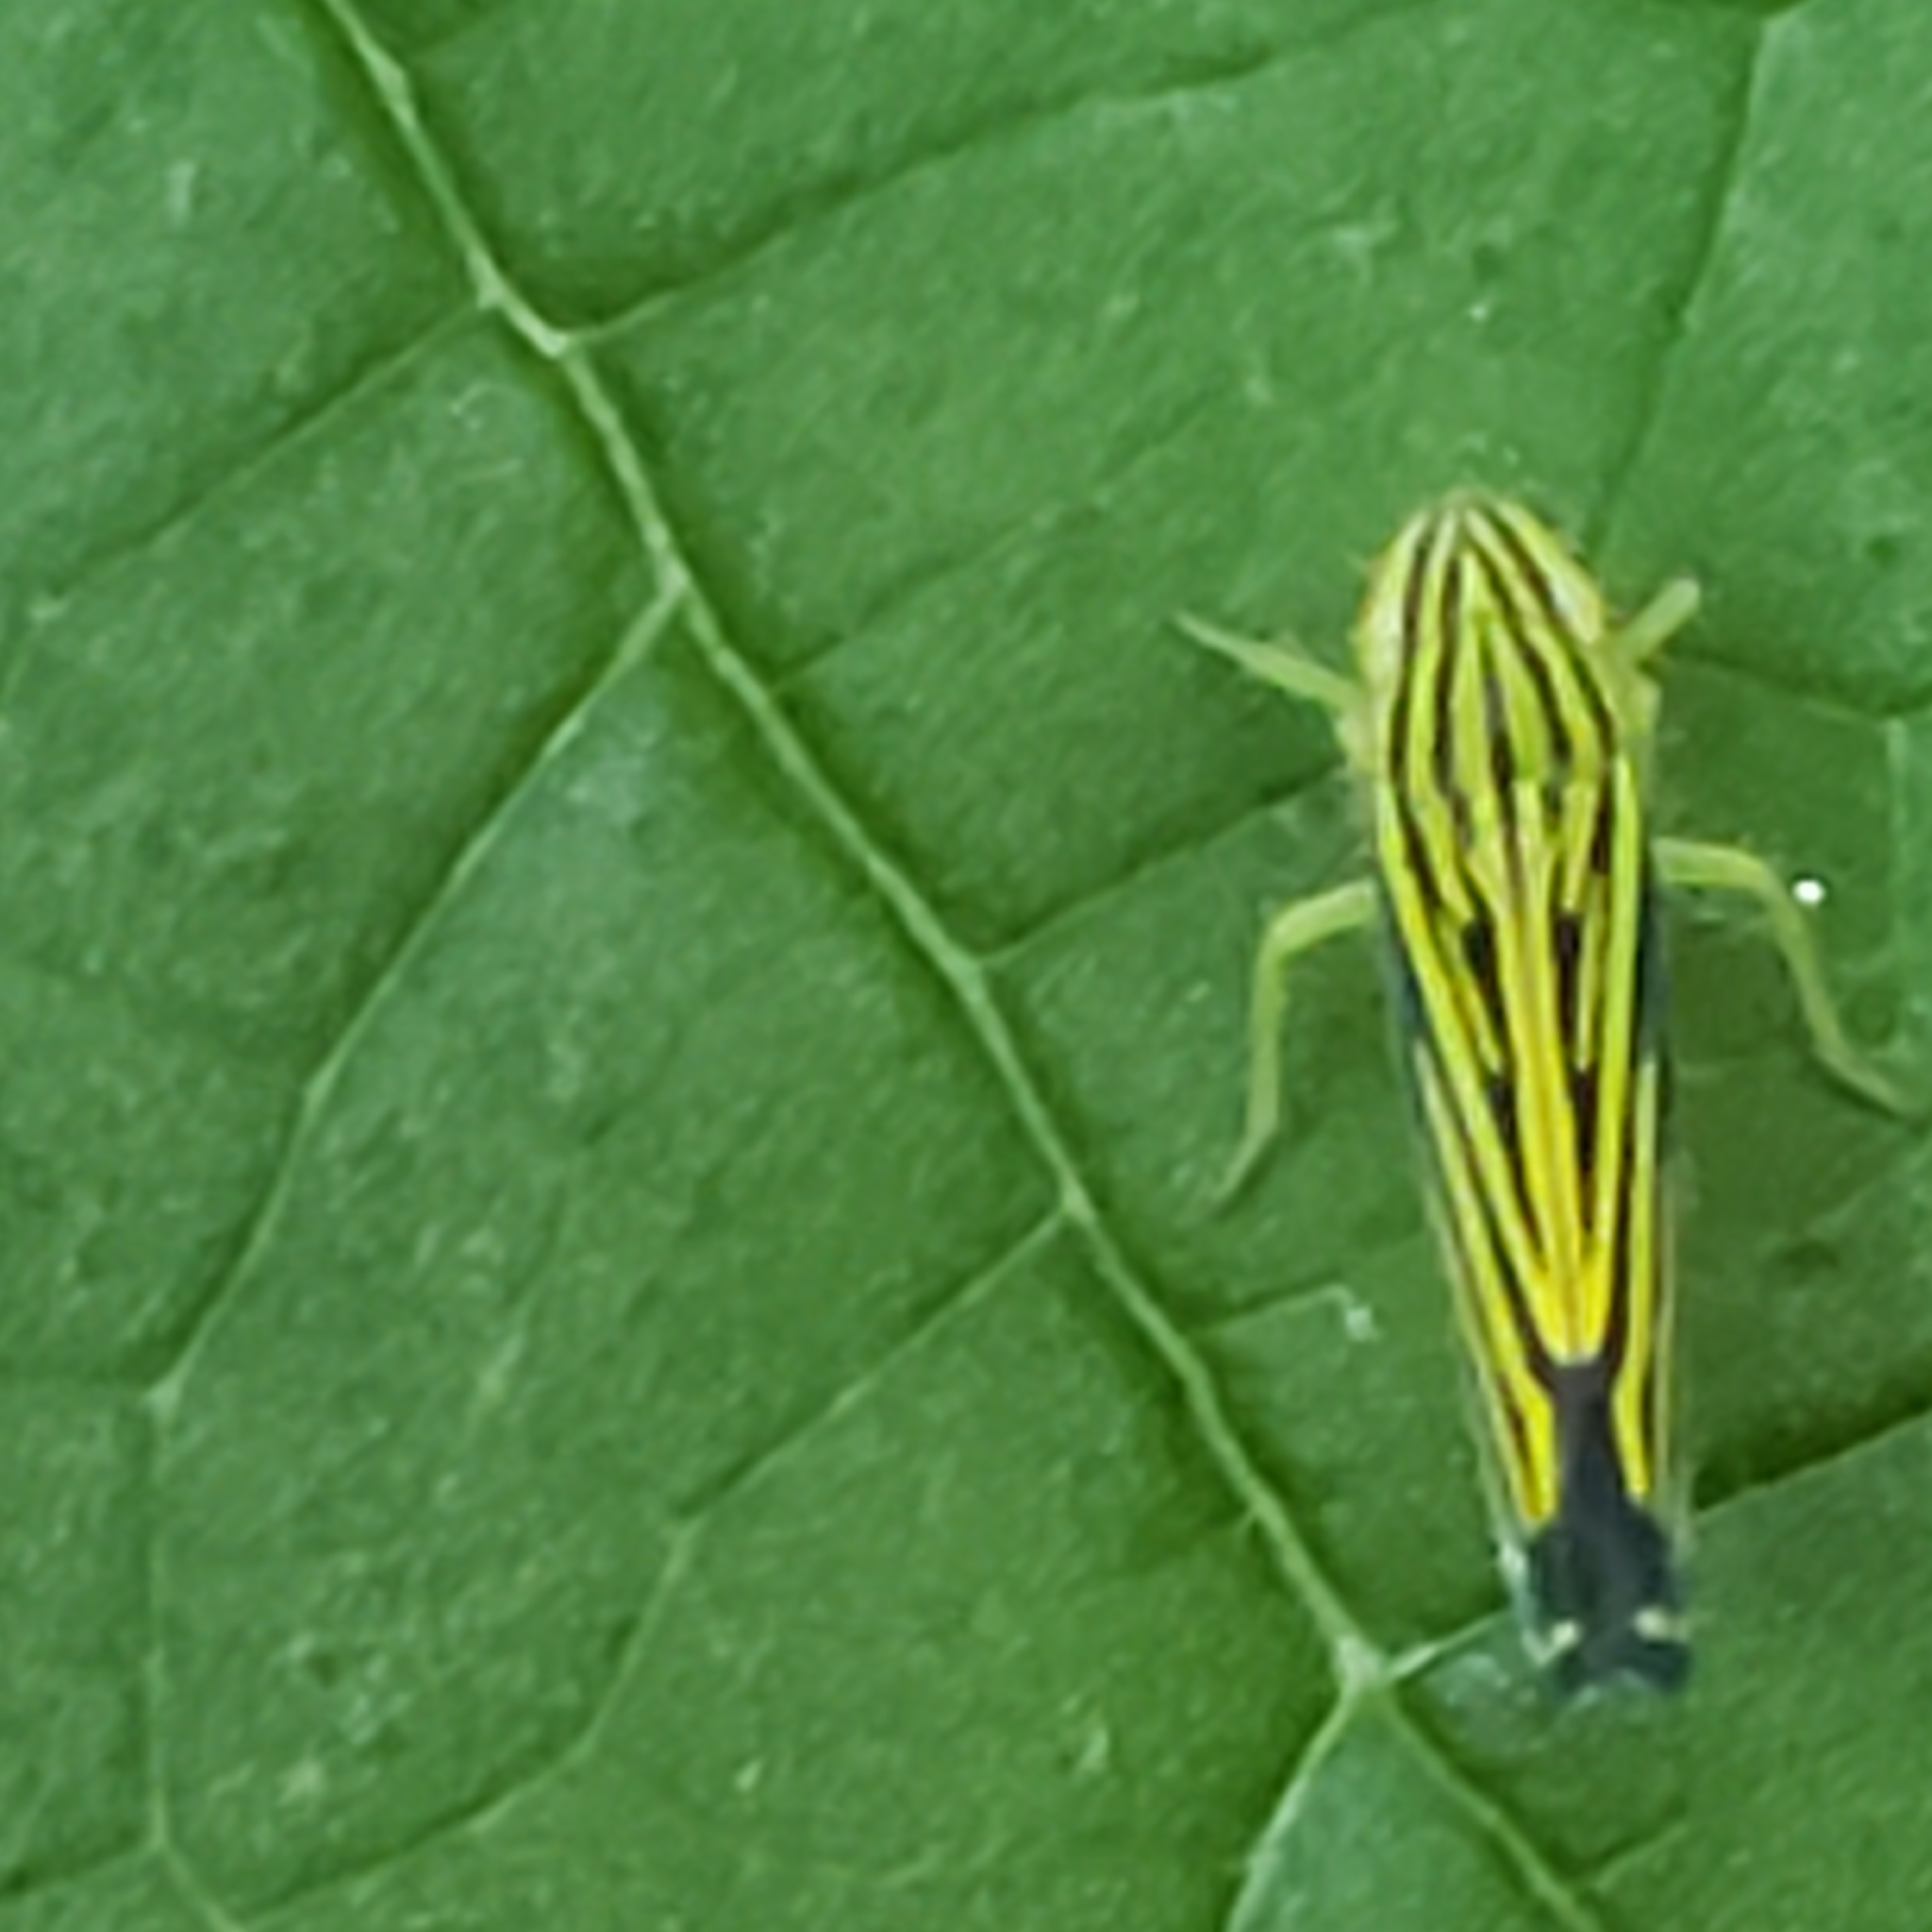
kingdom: Animalia
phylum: Arthropoda
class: Insecta
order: Hemiptera
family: Cicadellidae
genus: Sibovia
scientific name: Sibovia occatoria
